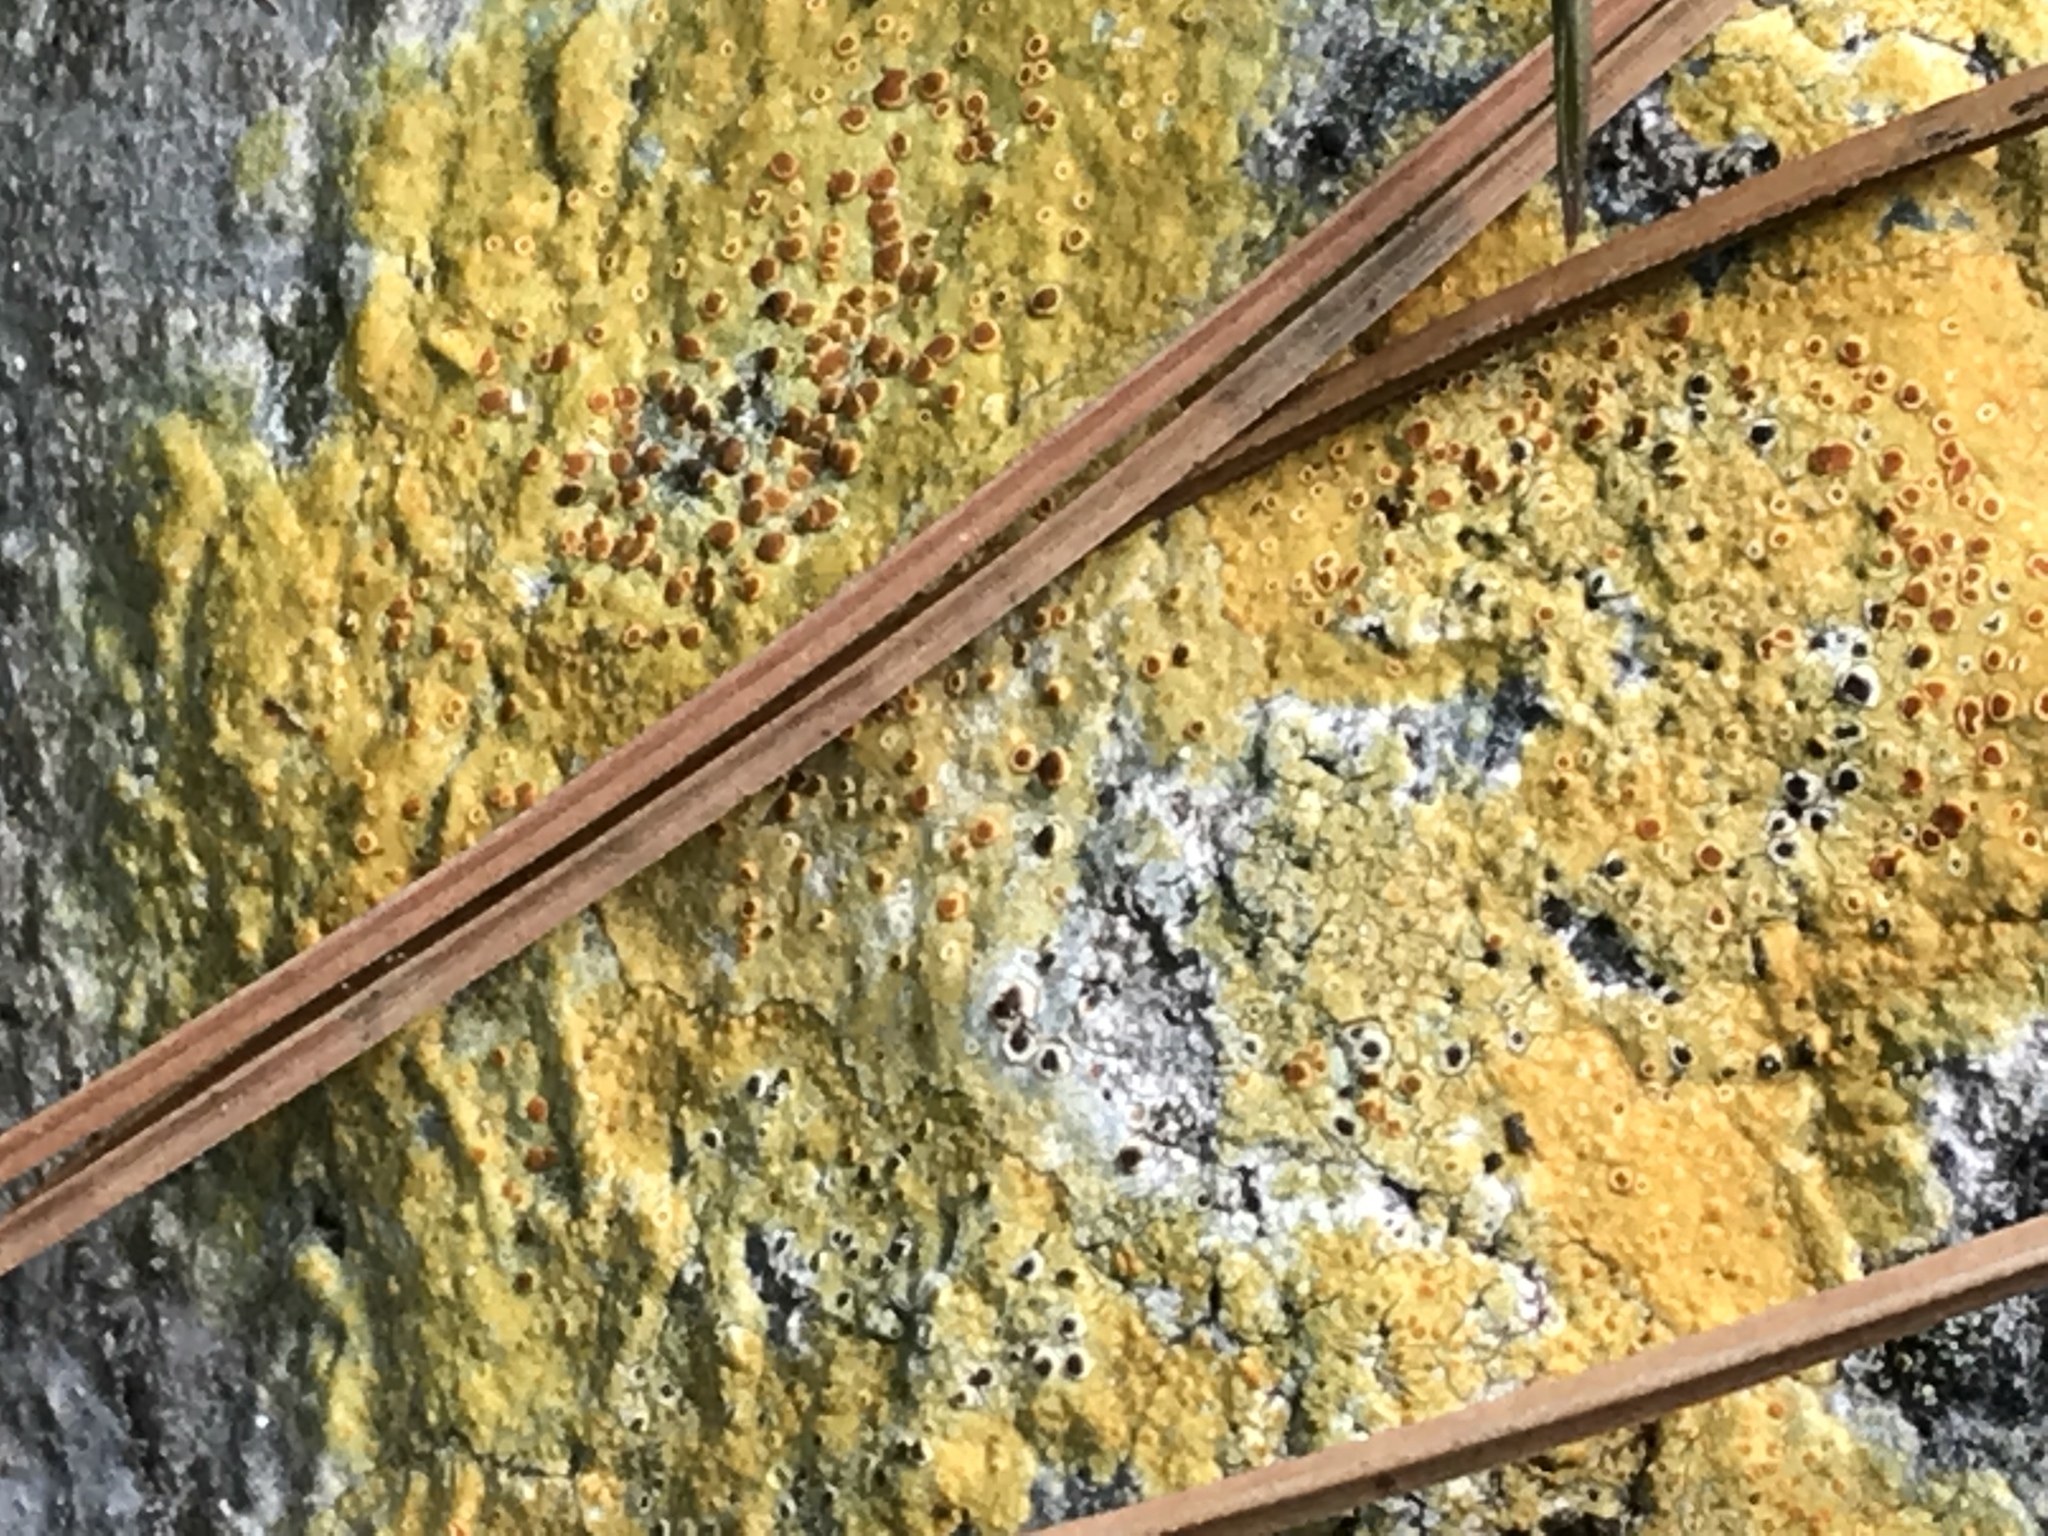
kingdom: Fungi
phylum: Ascomycota
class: Lecanoromycetes
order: Teloschistales
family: Teloschistaceae
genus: Gyalolechia
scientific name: Gyalolechia flavovirescens
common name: Sulphur firedot
